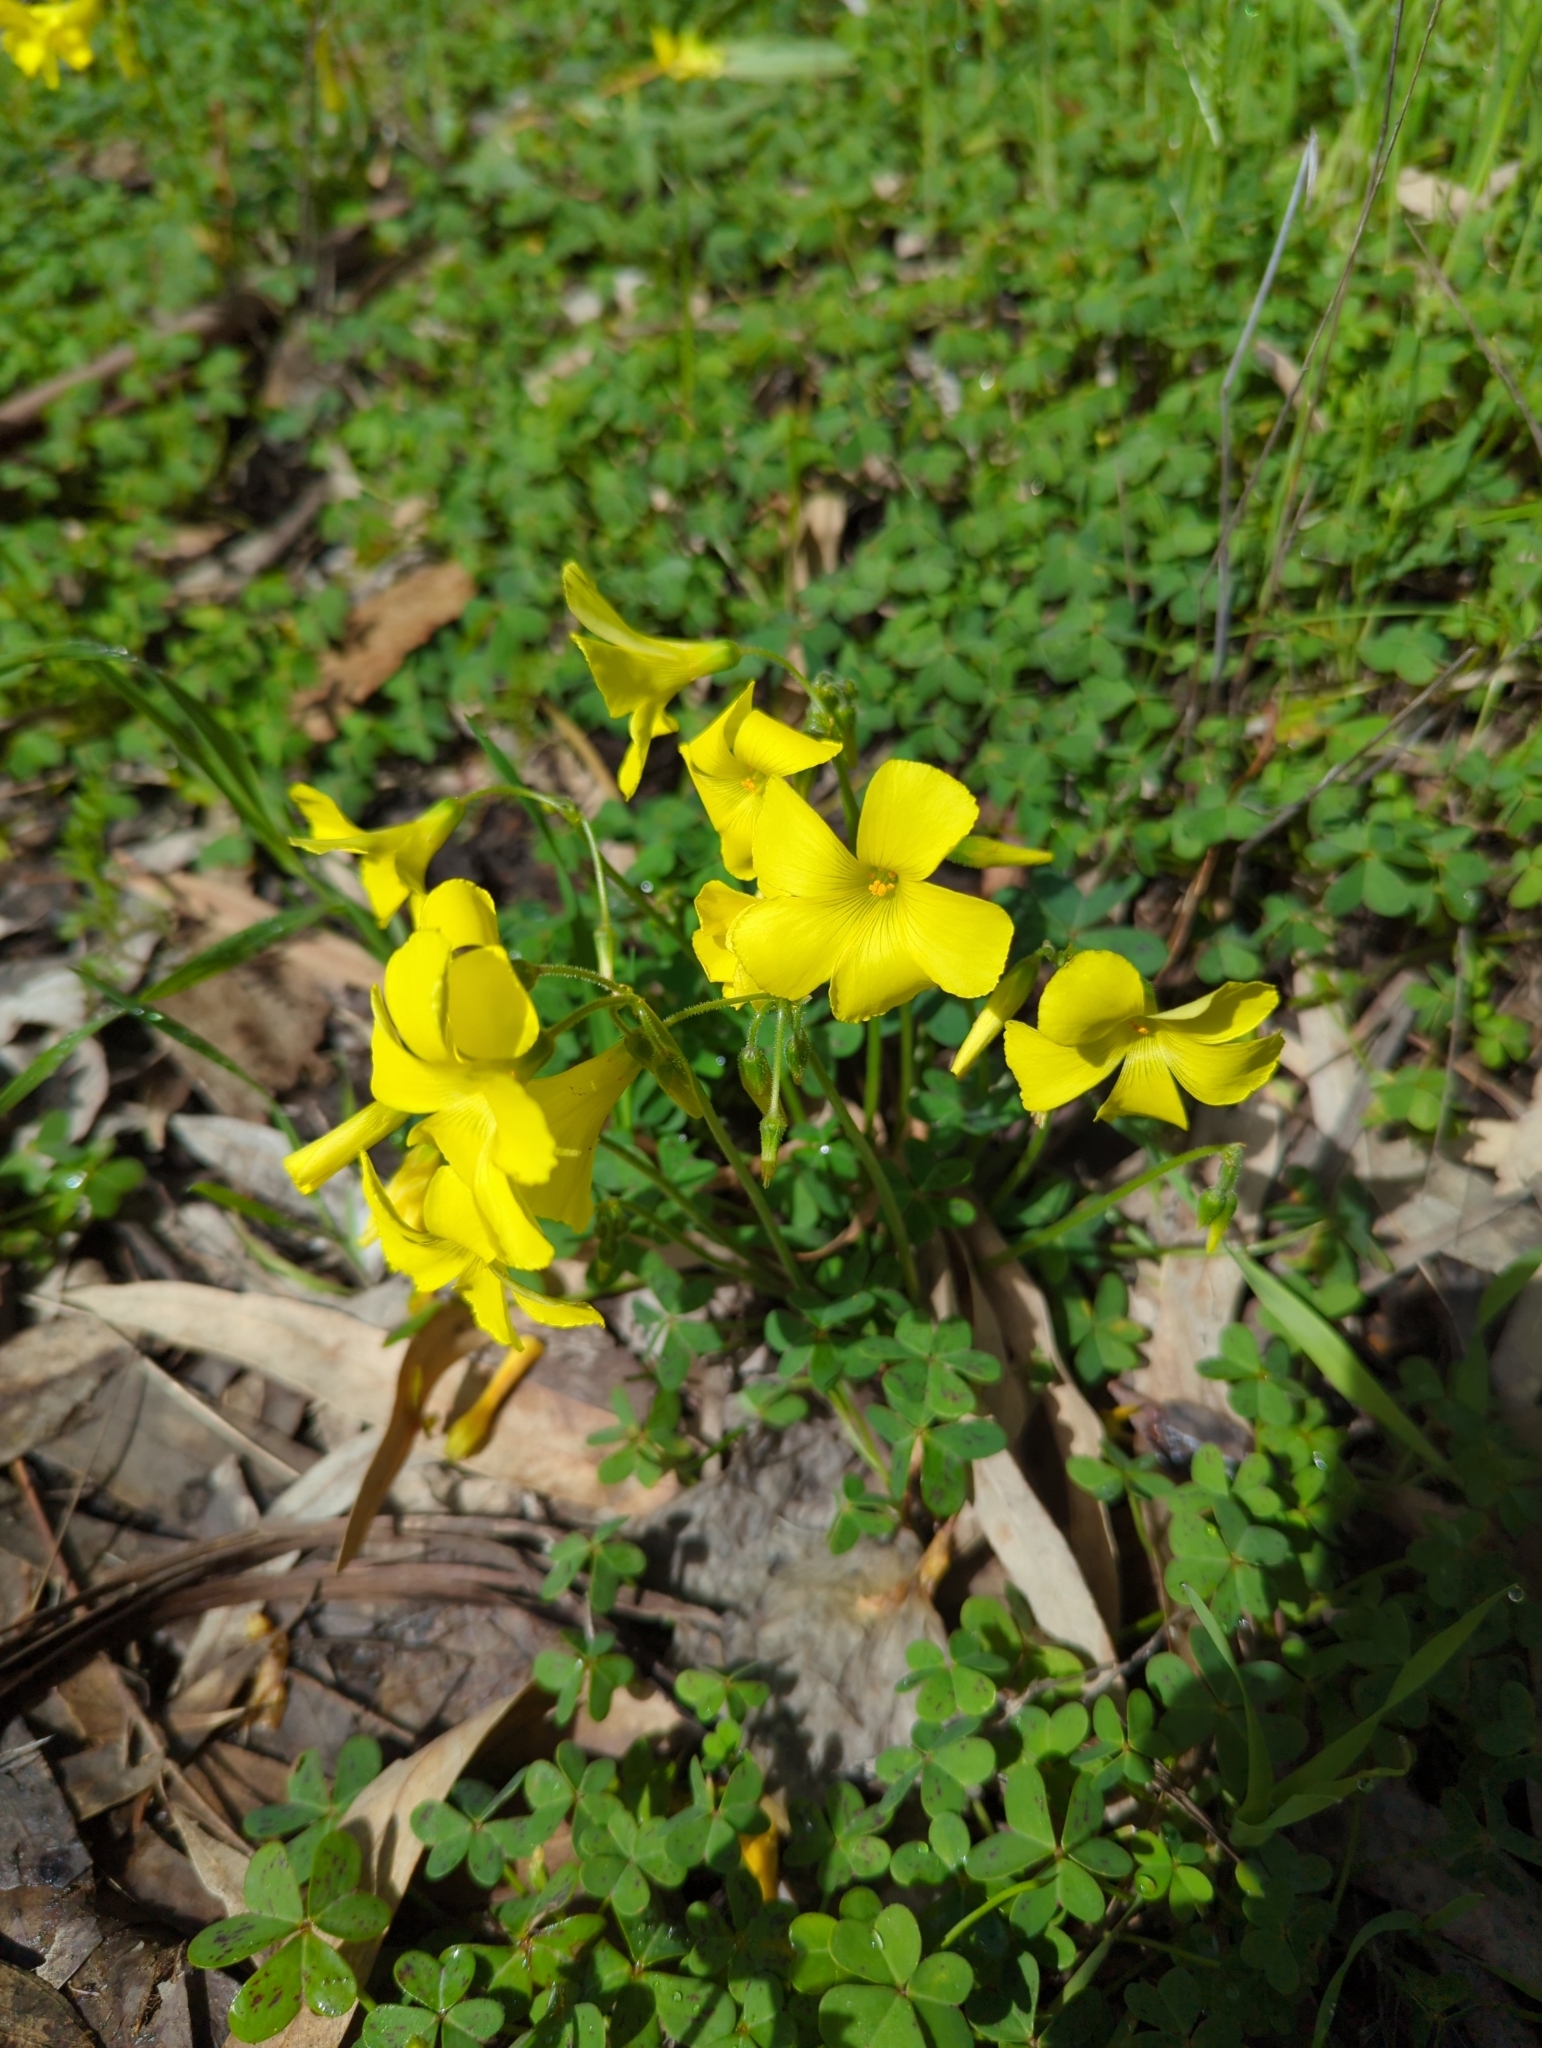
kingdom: Plantae
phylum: Tracheophyta
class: Magnoliopsida
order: Oxalidales
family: Oxalidaceae
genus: Oxalis
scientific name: Oxalis pes-caprae
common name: Bermuda-buttercup
